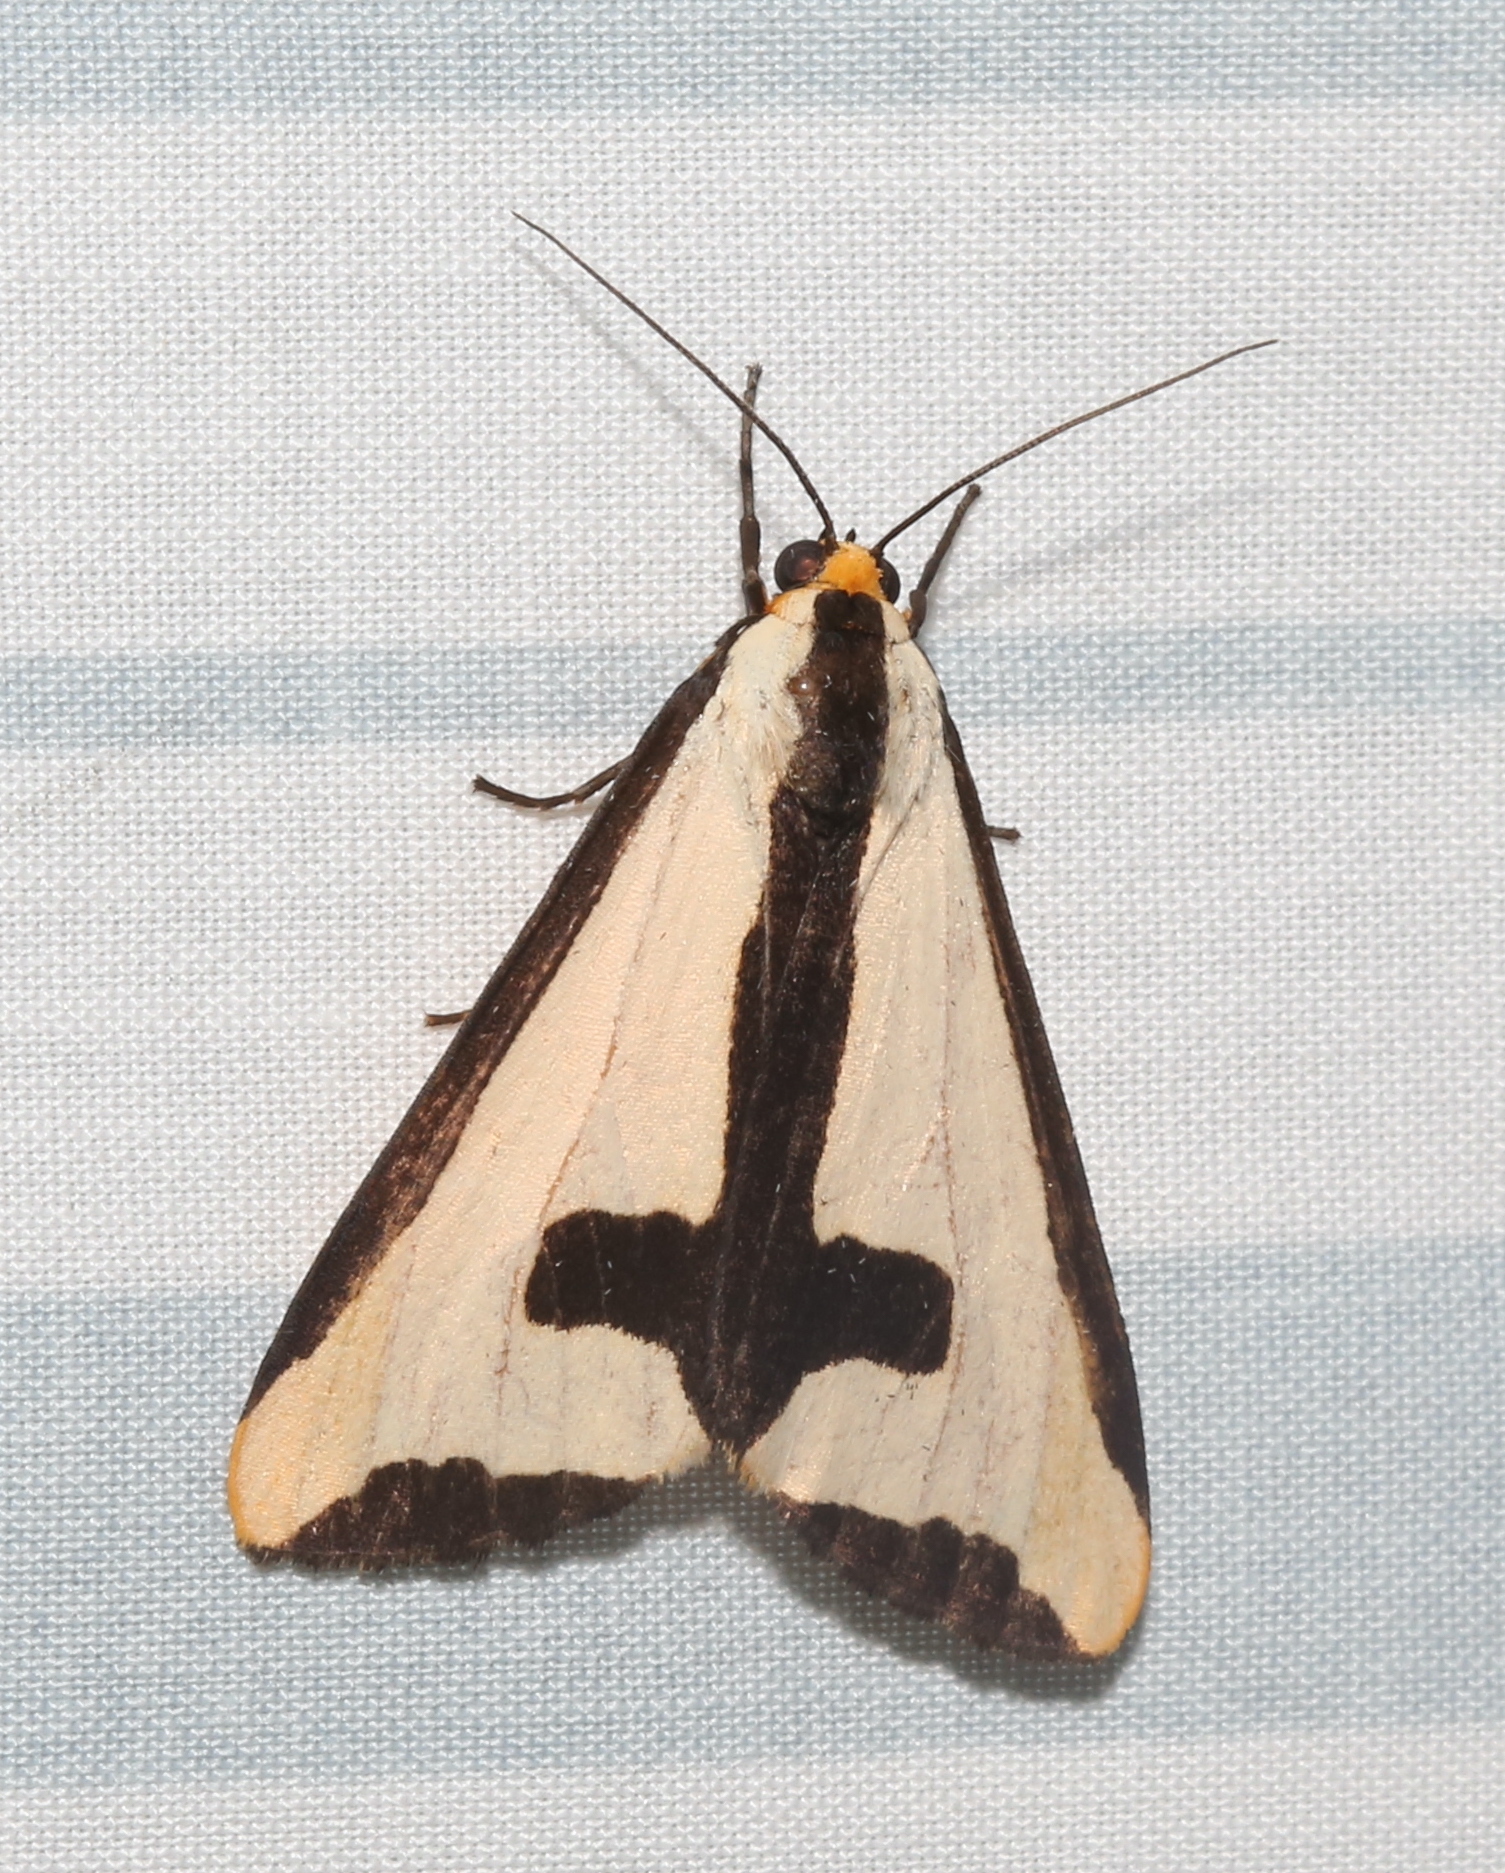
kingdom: Animalia
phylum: Arthropoda
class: Insecta
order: Lepidoptera
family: Erebidae
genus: Haploa
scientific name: Haploa clymene
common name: Clymene moth
